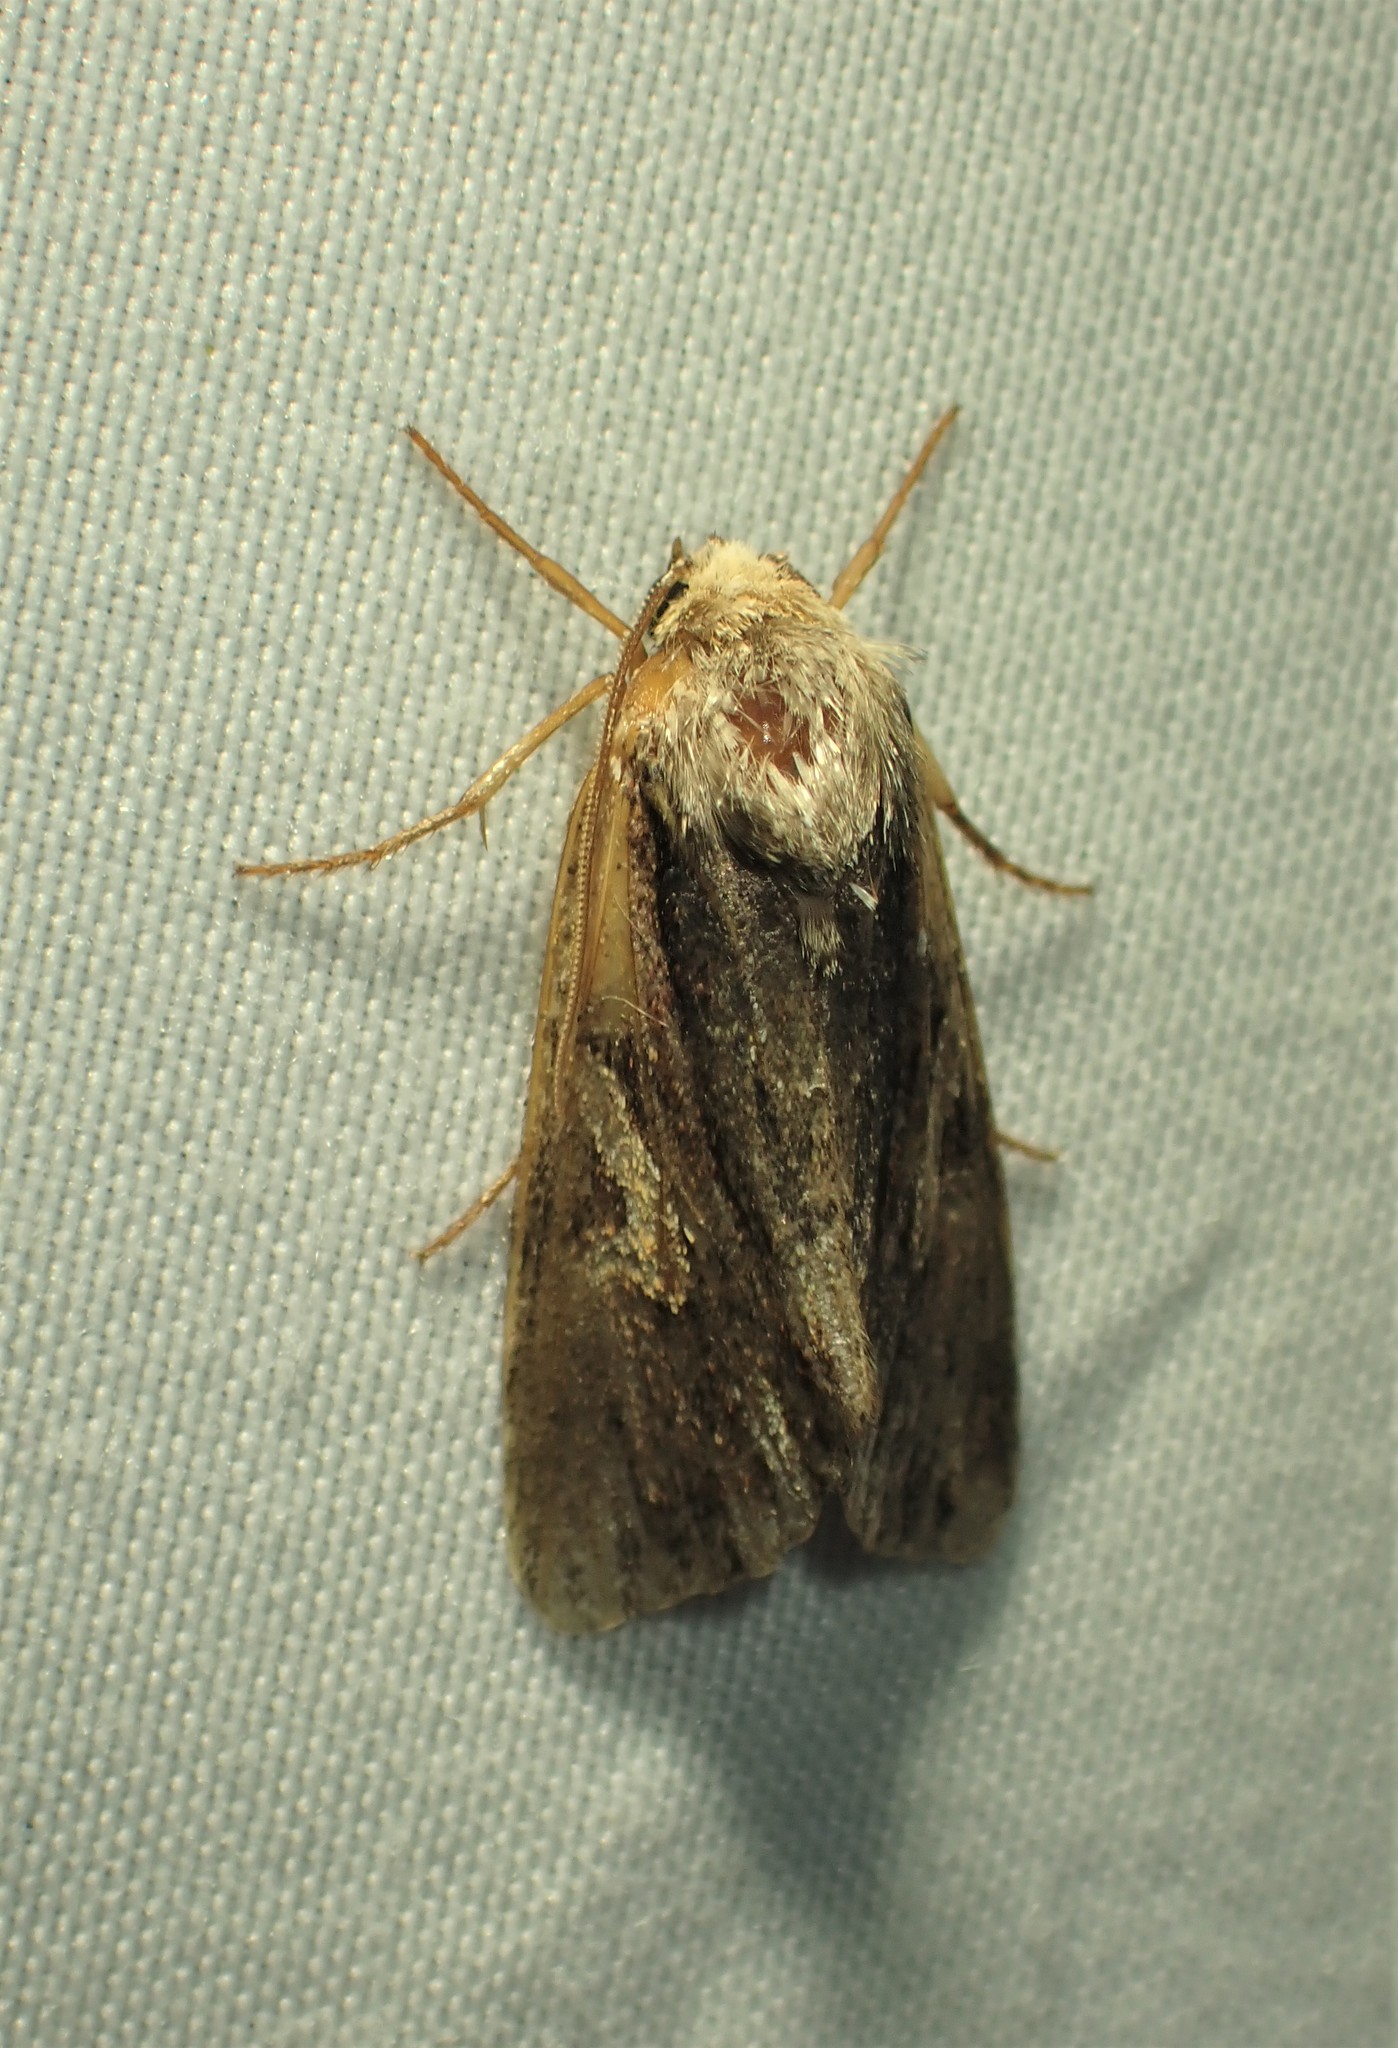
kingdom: Animalia
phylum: Arthropoda
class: Insecta
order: Lepidoptera
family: Noctuidae
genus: Achatia
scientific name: Achatia evicta
